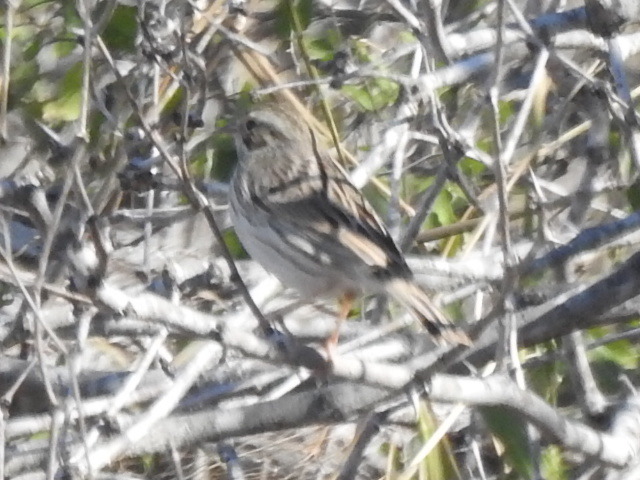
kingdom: Animalia
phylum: Chordata
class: Aves
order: Passeriformes
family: Passerellidae
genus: Spizella
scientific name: Spizella pallida
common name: Clay-colored sparrow
